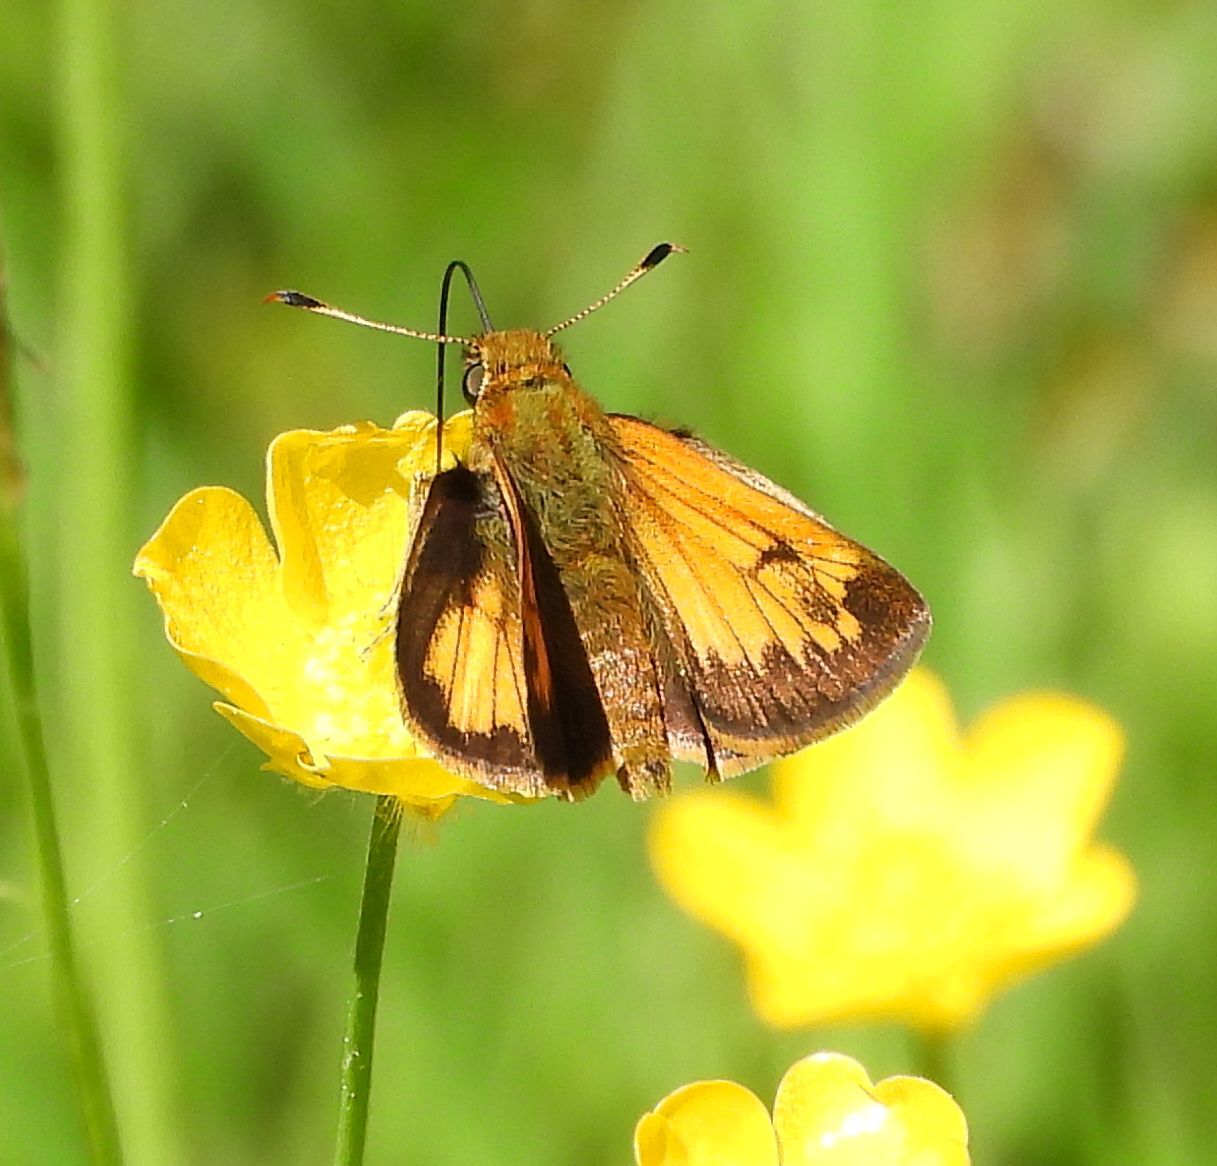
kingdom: Animalia
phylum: Arthropoda
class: Insecta
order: Lepidoptera
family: Hesperiidae
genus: Lon
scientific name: Lon hobomok
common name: Hobomok skipper
